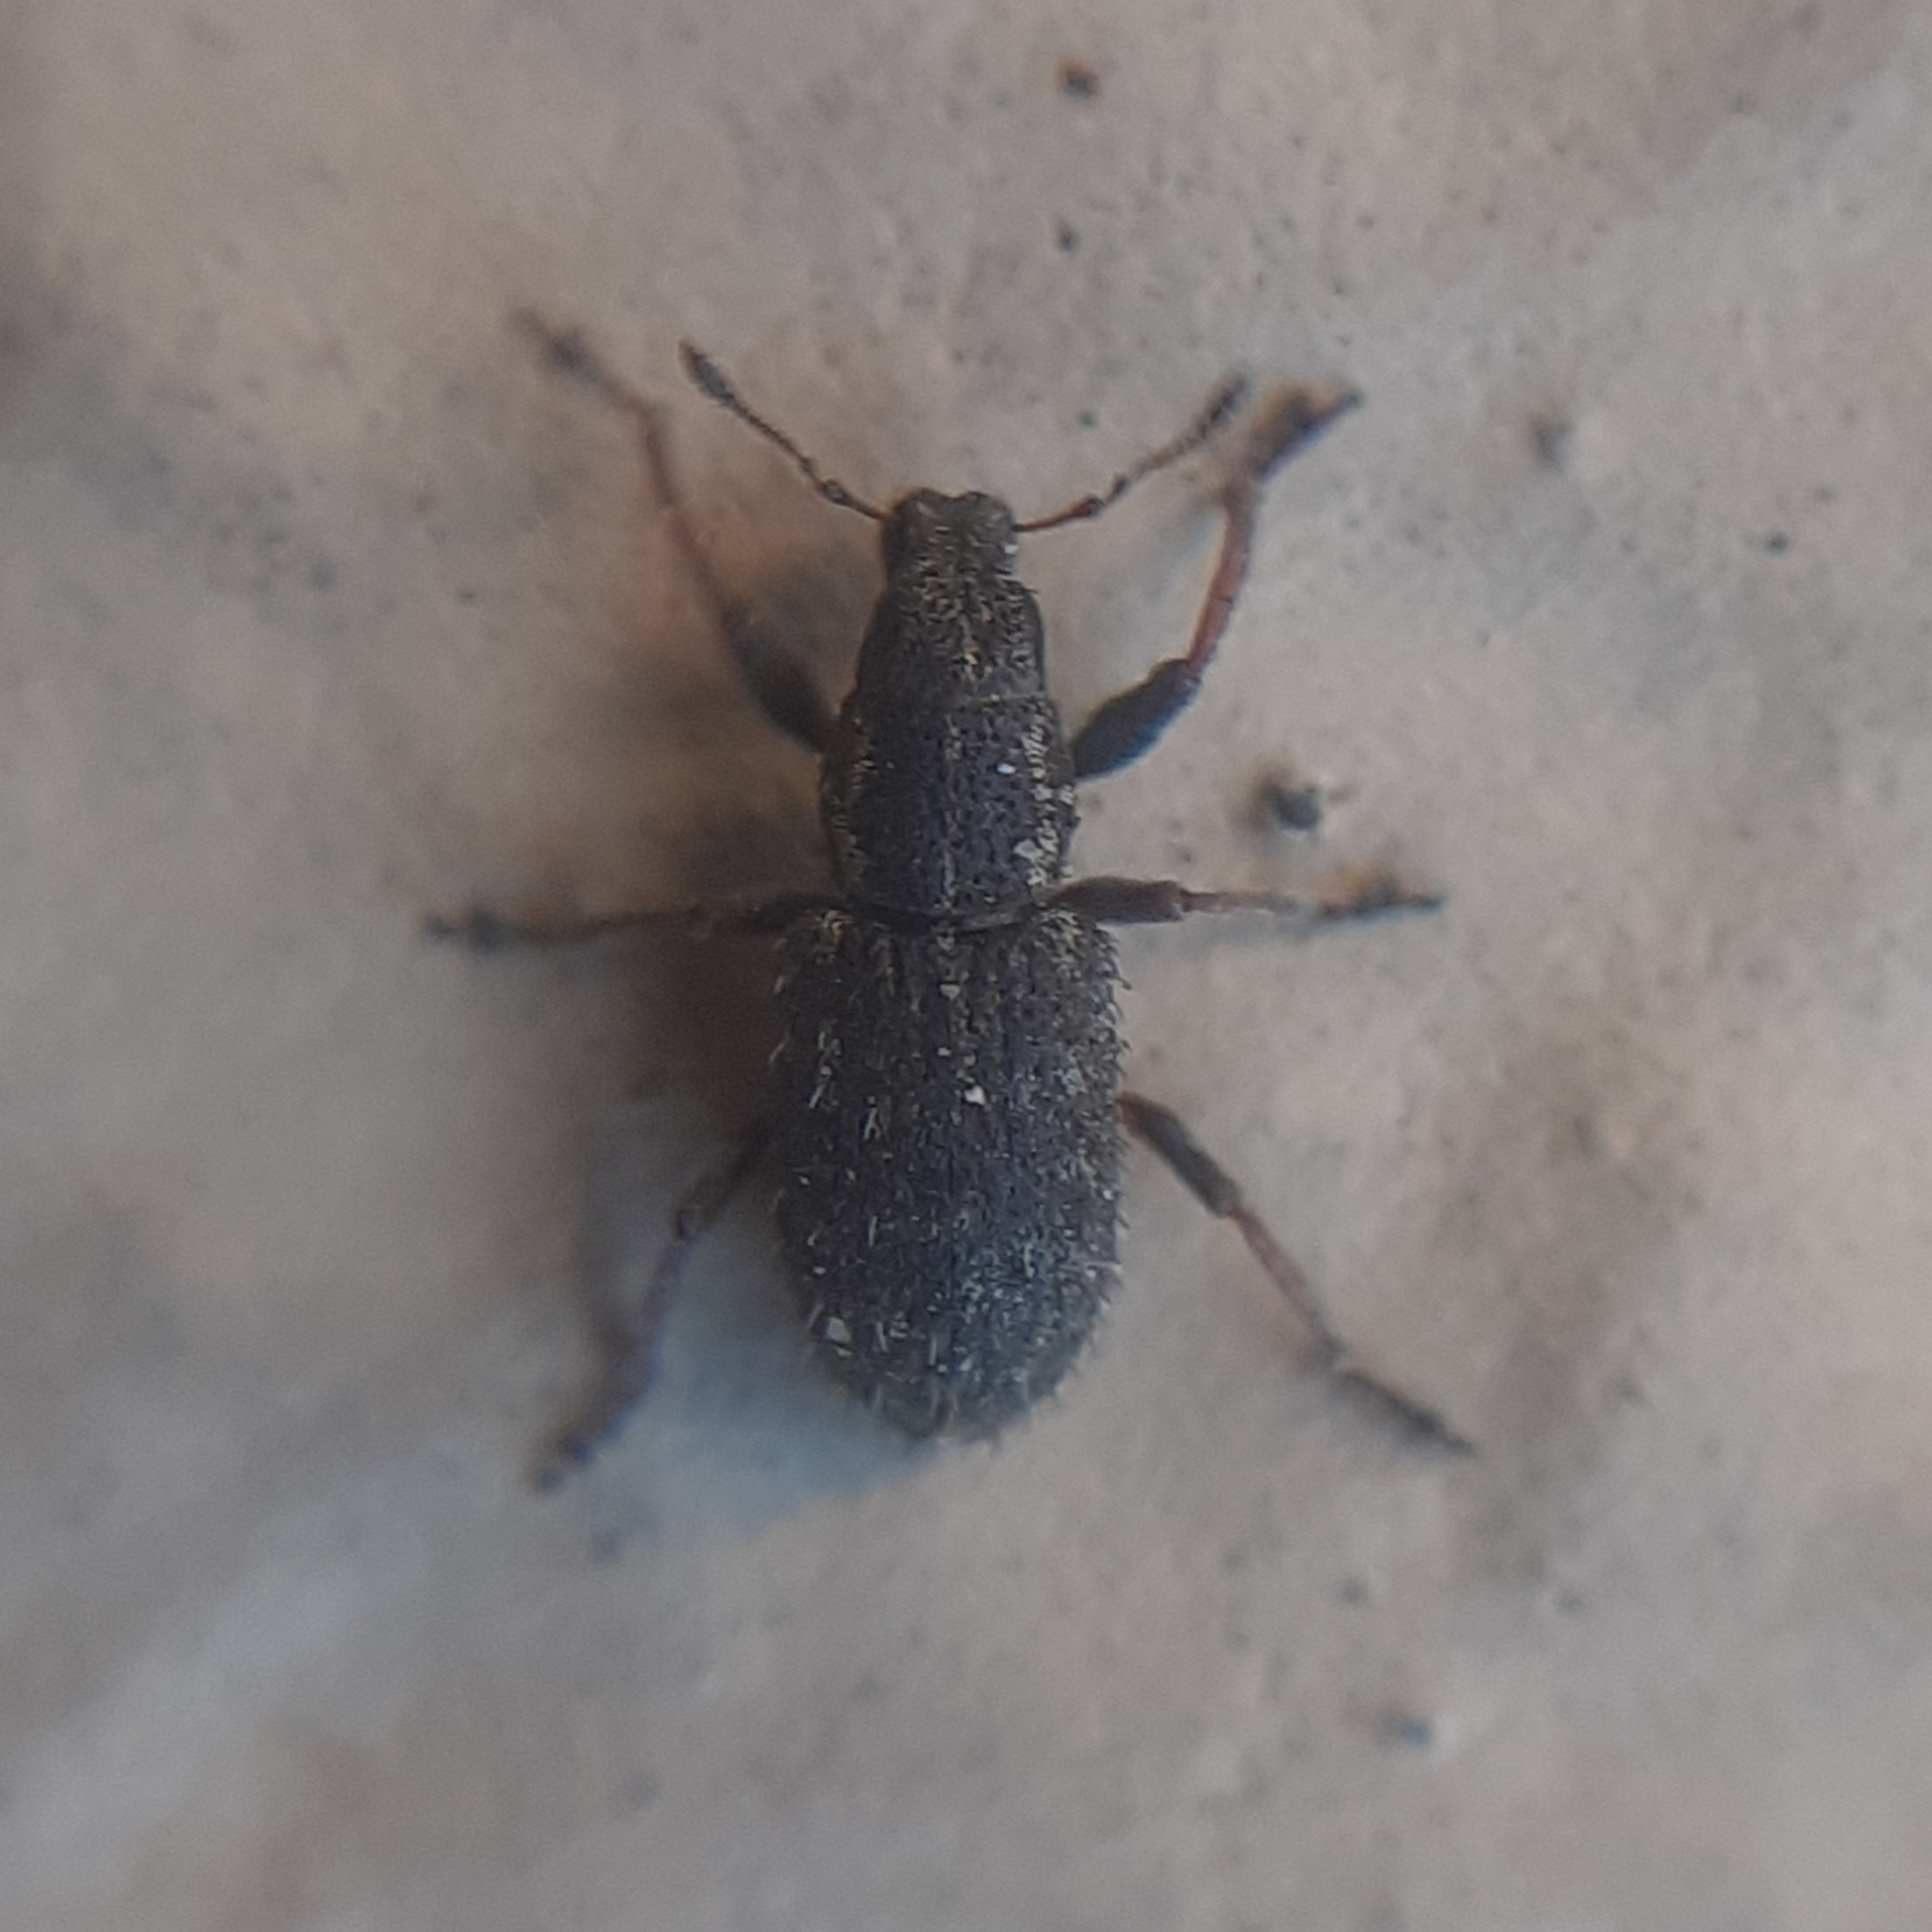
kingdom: Animalia
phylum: Arthropoda
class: Insecta
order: Coleoptera
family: Curculionidae
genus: Sitona
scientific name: Sitona hispidulus
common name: Clover weevil
